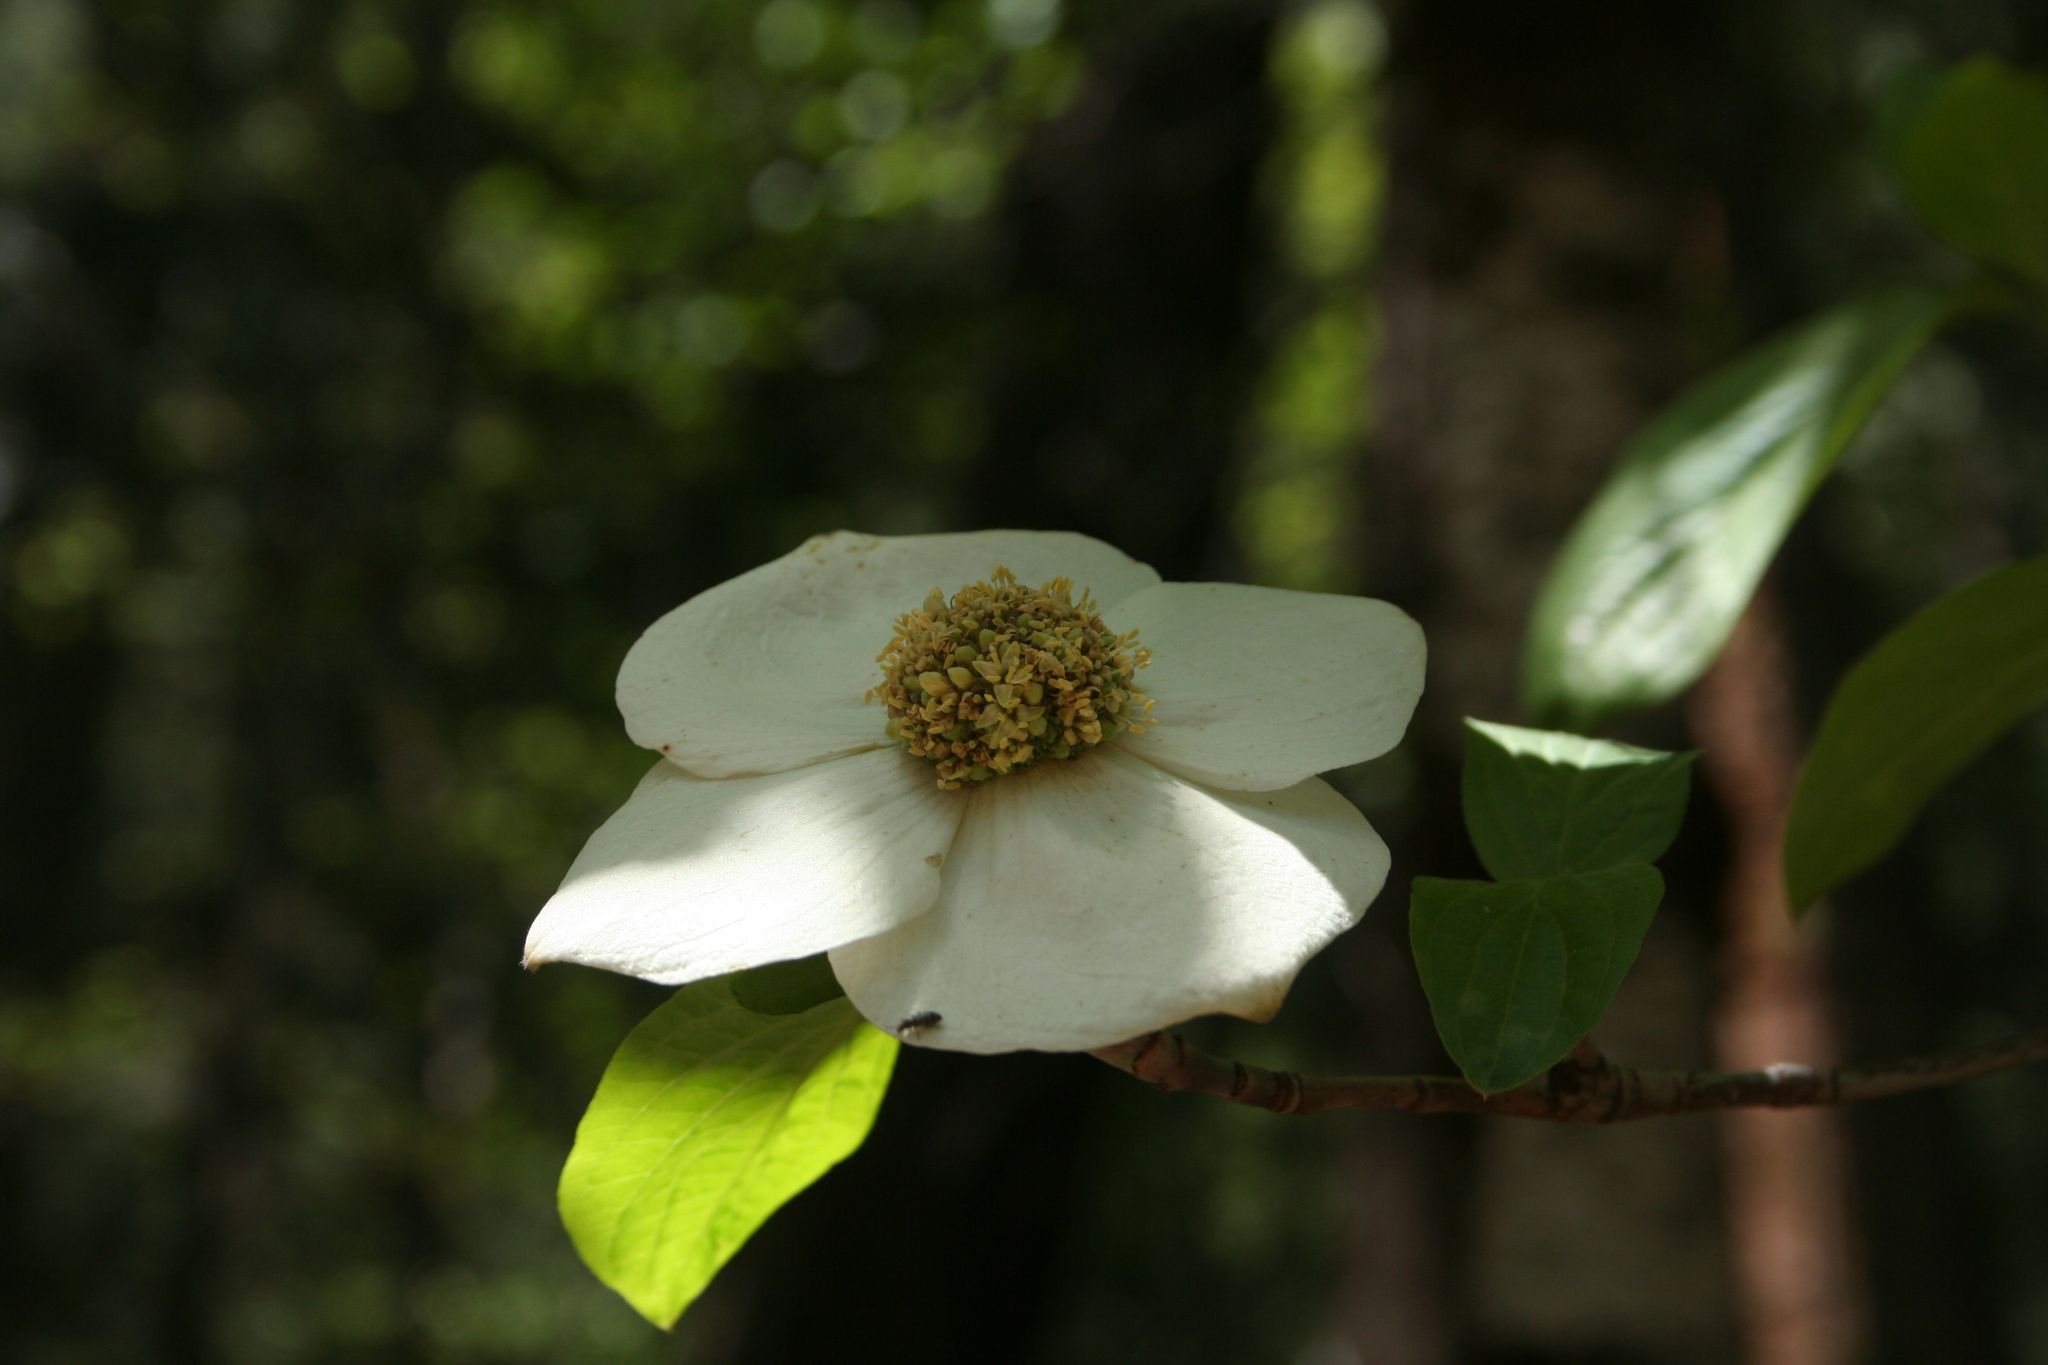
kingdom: Plantae
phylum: Tracheophyta
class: Magnoliopsida
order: Cornales
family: Cornaceae
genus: Cornus
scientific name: Cornus nuttallii
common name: Pacific dogwood
